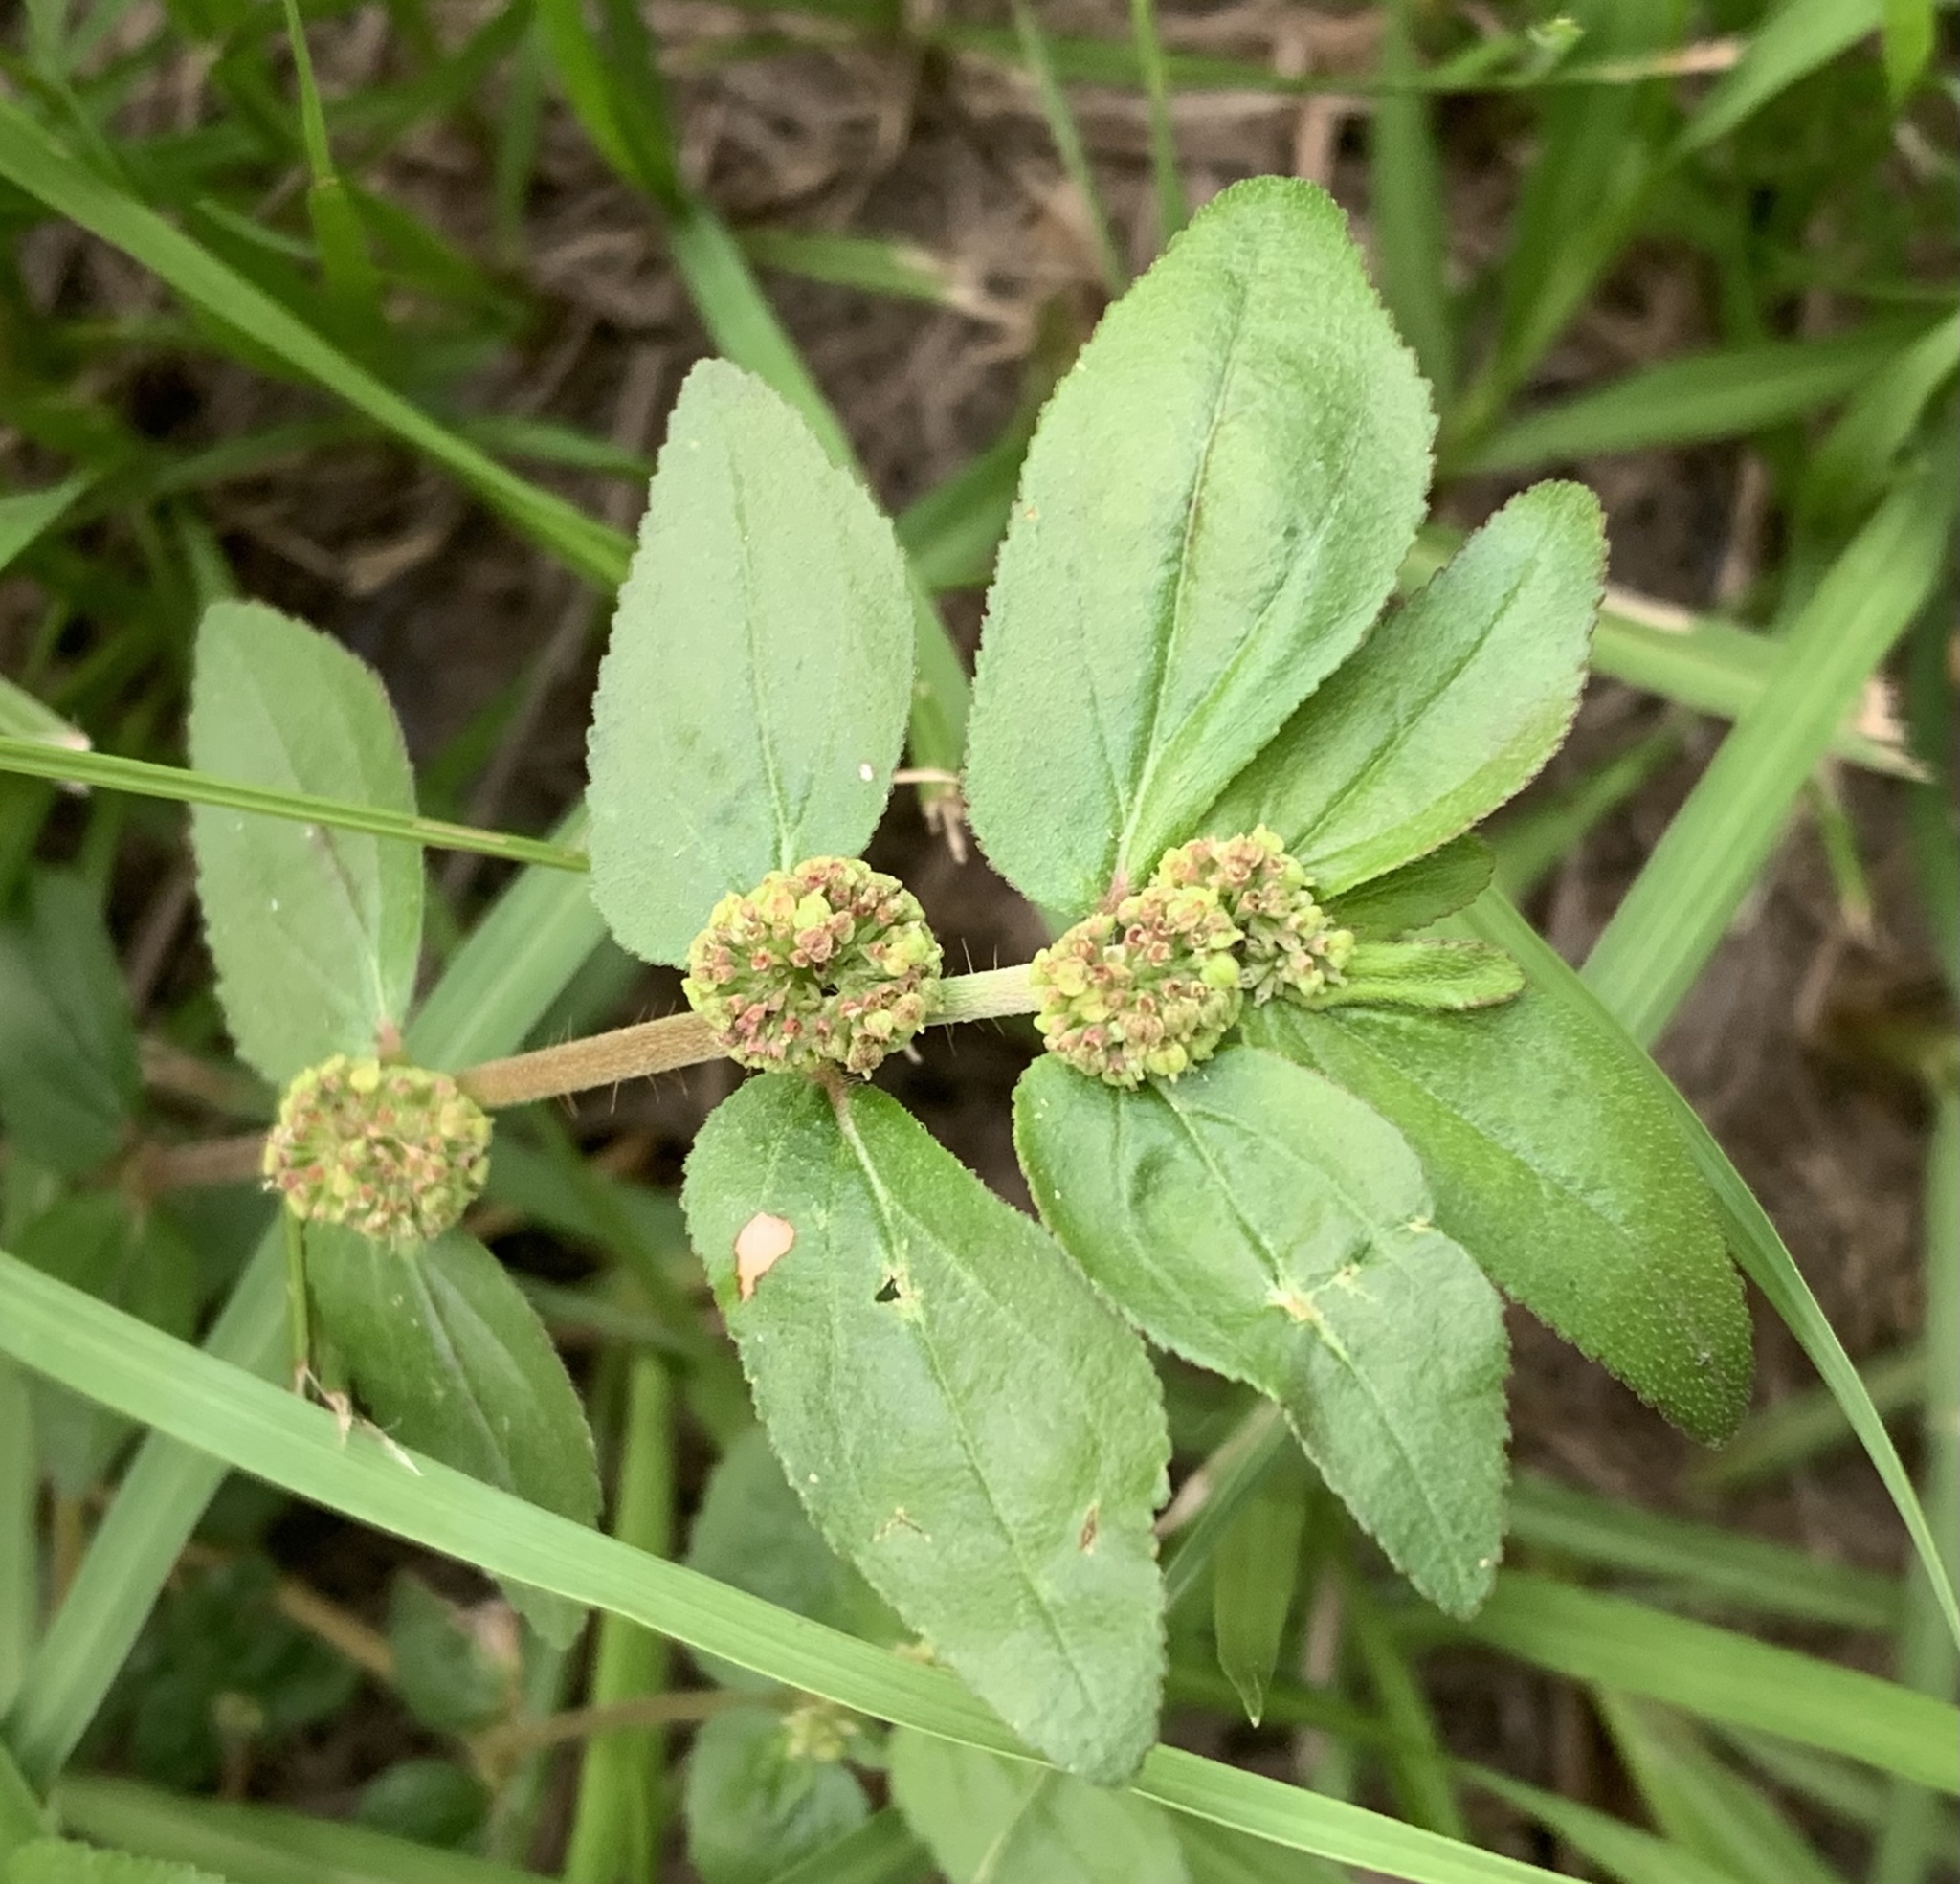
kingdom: Plantae
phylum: Tracheophyta
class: Magnoliopsida
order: Malpighiales
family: Euphorbiaceae
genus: Euphorbia
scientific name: Euphorbia hirta
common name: Pillpod sandmat
